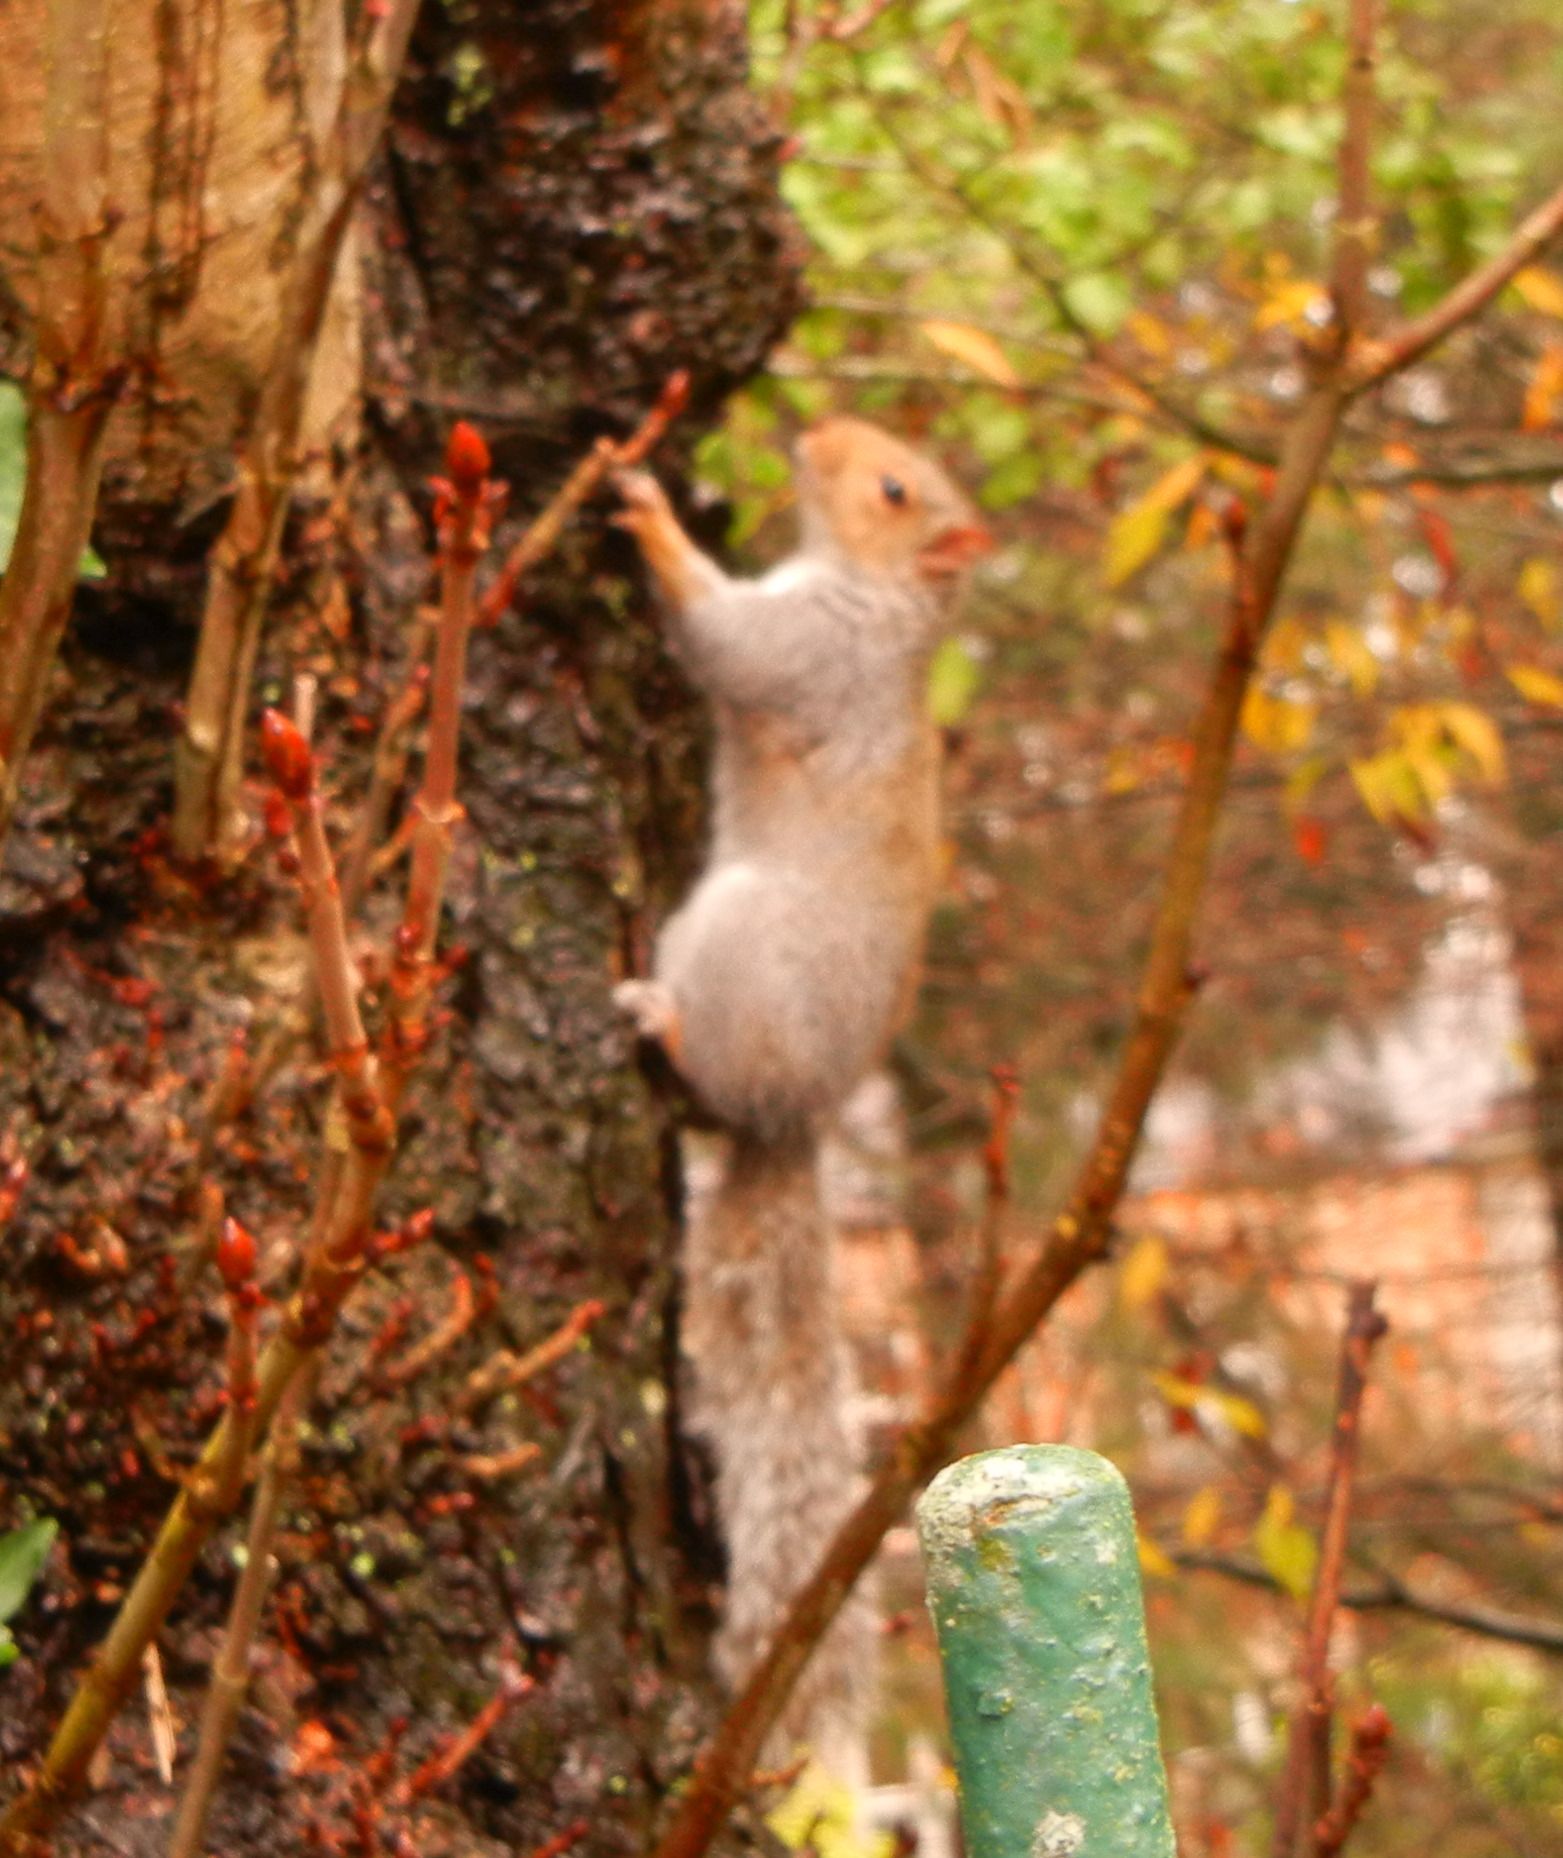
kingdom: Animalia
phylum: Chordata
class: Mammalia
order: Rodentia
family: Sciuridae
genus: Sciurus
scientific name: Sciurus carolinensis
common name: Eastern gray squirrel
